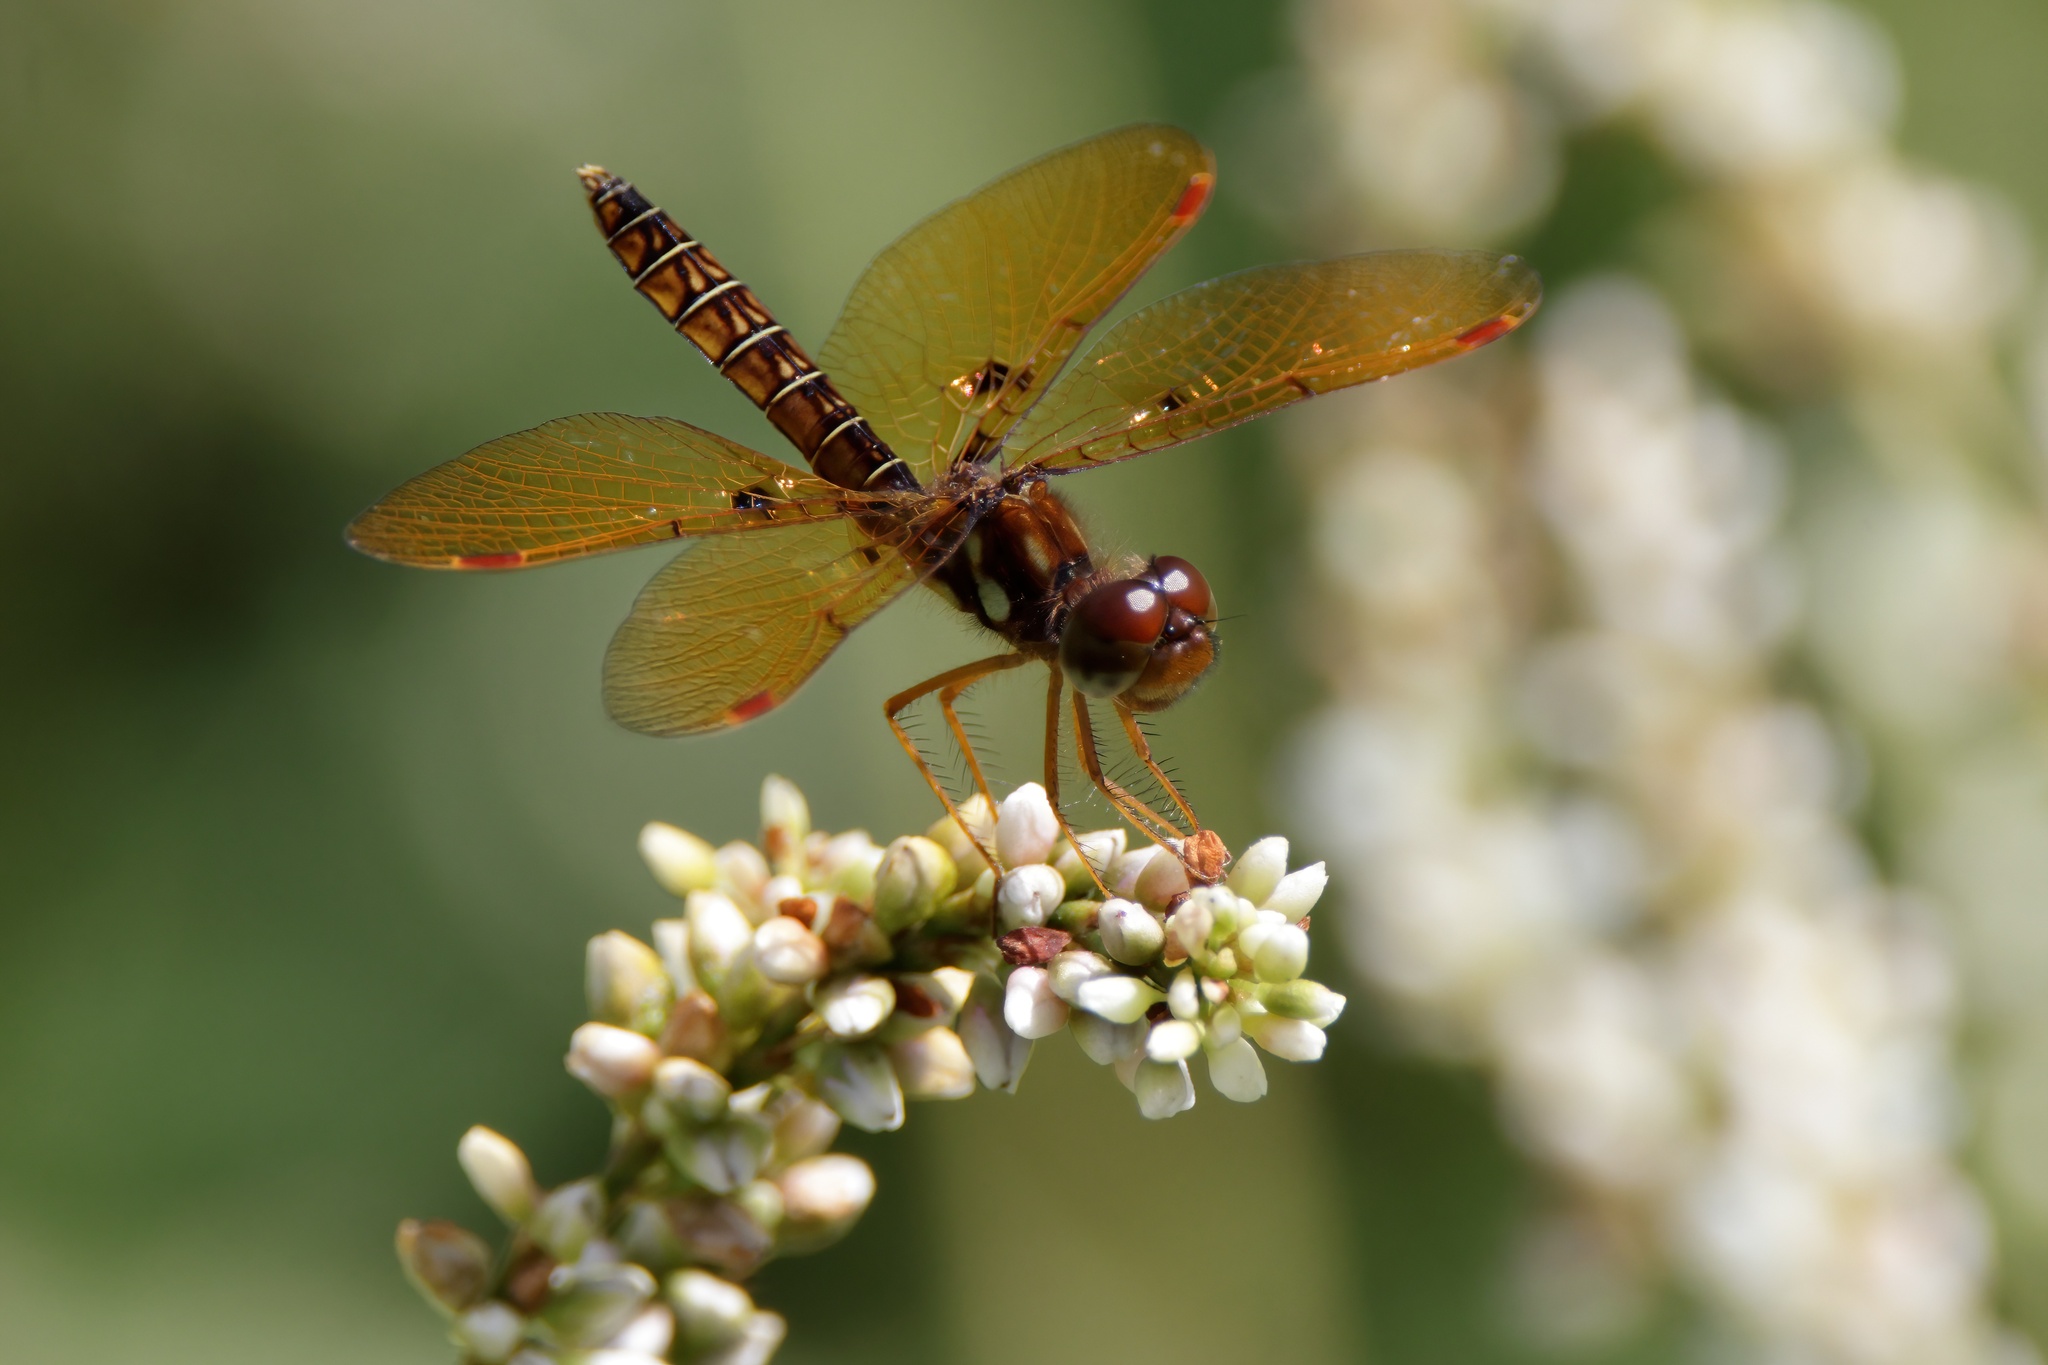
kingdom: Animalia
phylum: Arthropoda
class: Insecta
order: Odonata
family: Libellulidae
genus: Perithemis
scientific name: Perithemis tenera
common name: Eastern amberwing
